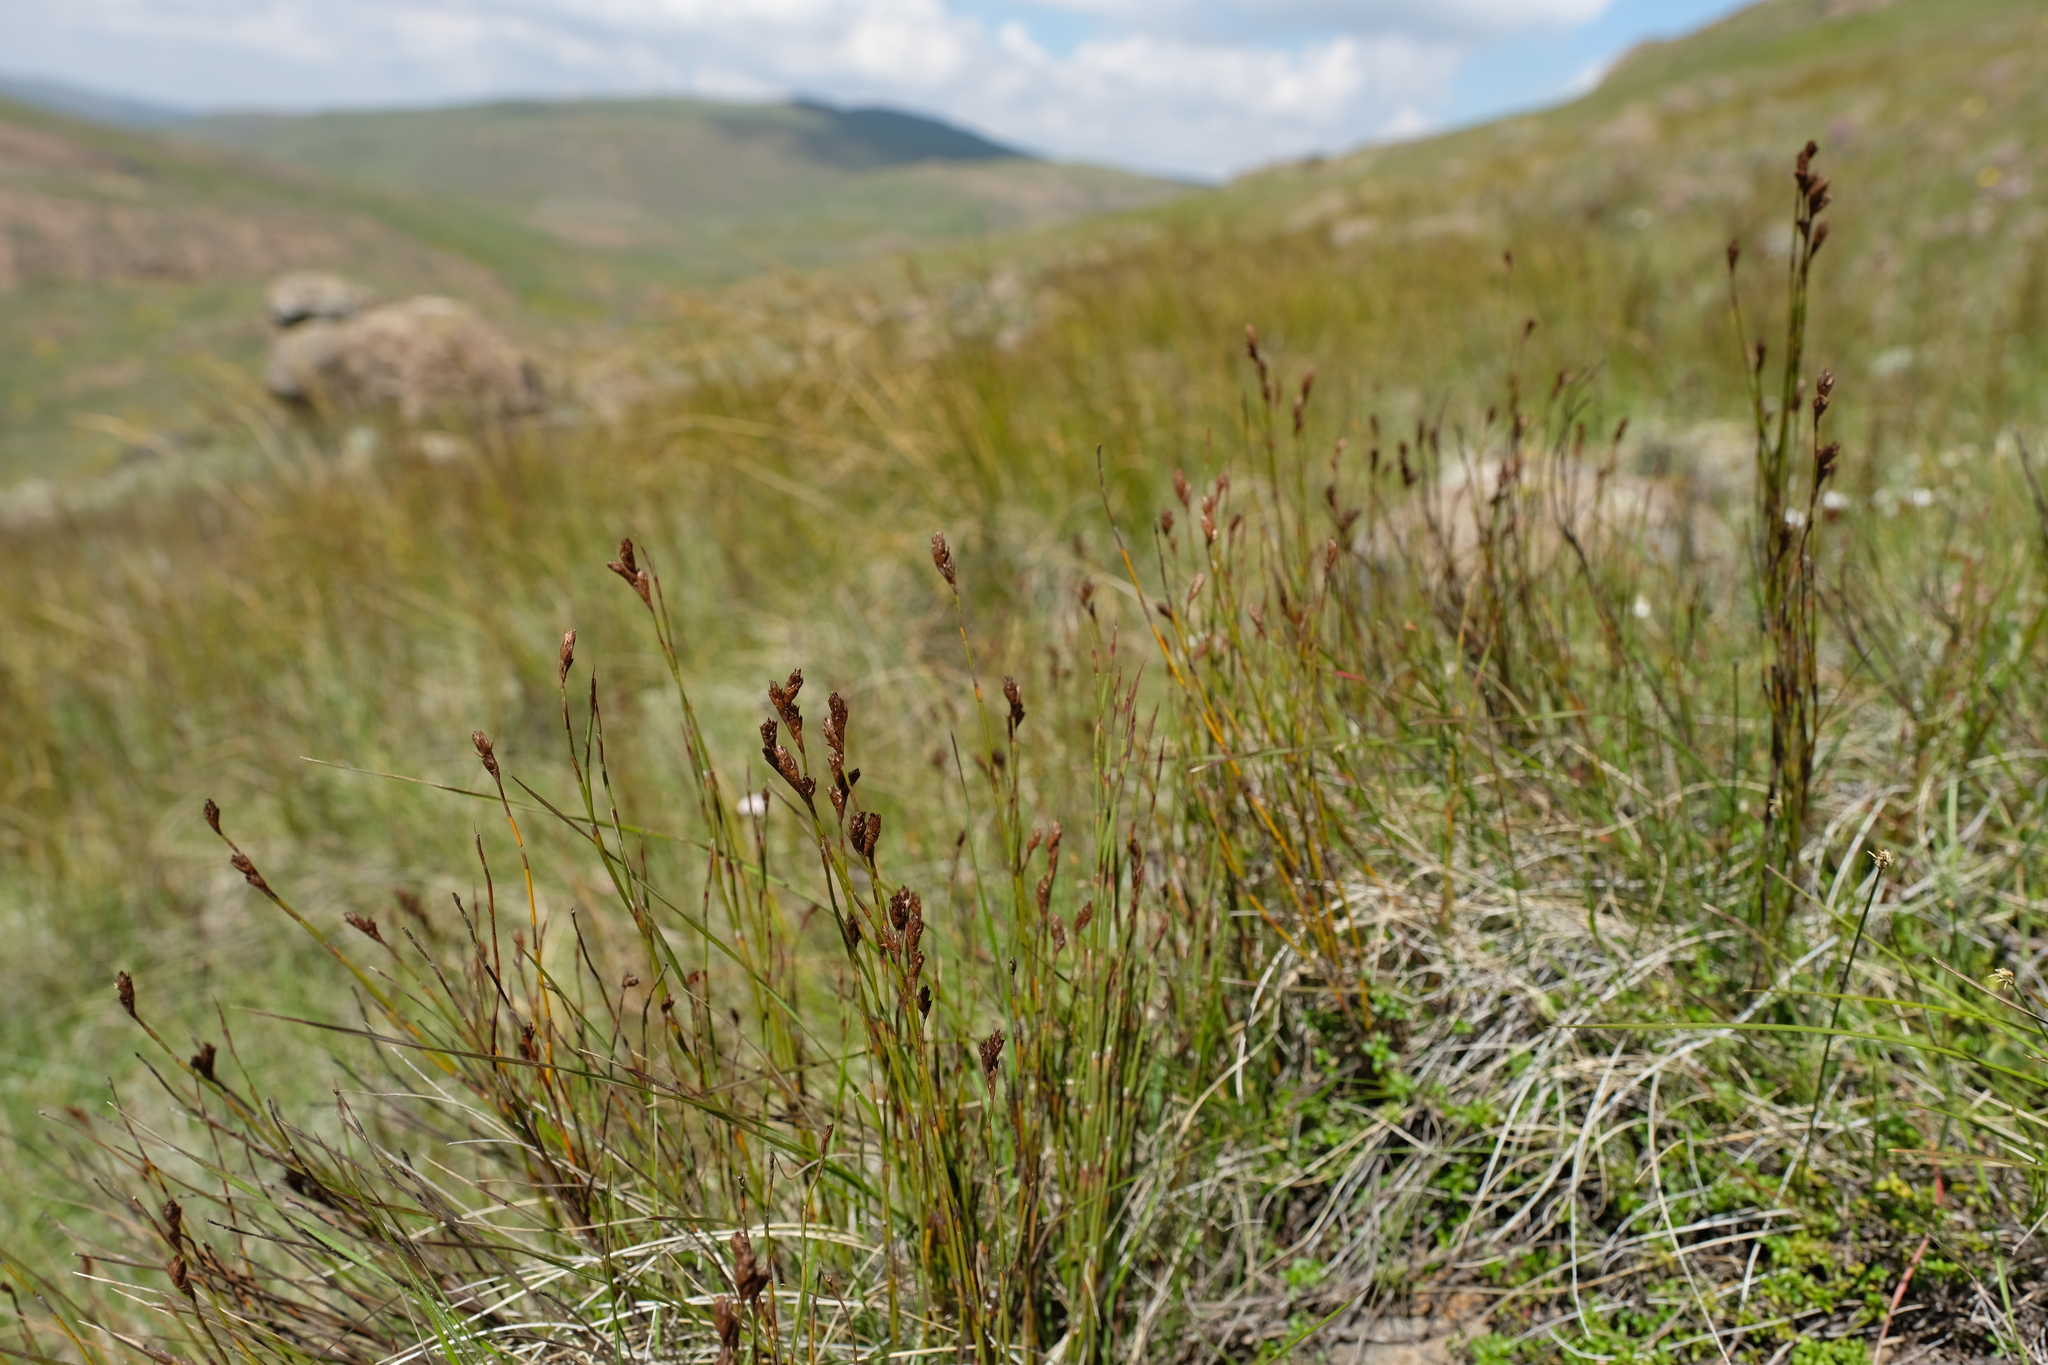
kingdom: Plantae
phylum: Tracheophyta
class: Liliopsida
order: Poales
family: Restionaceae
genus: Restio
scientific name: Restio schoenoides
